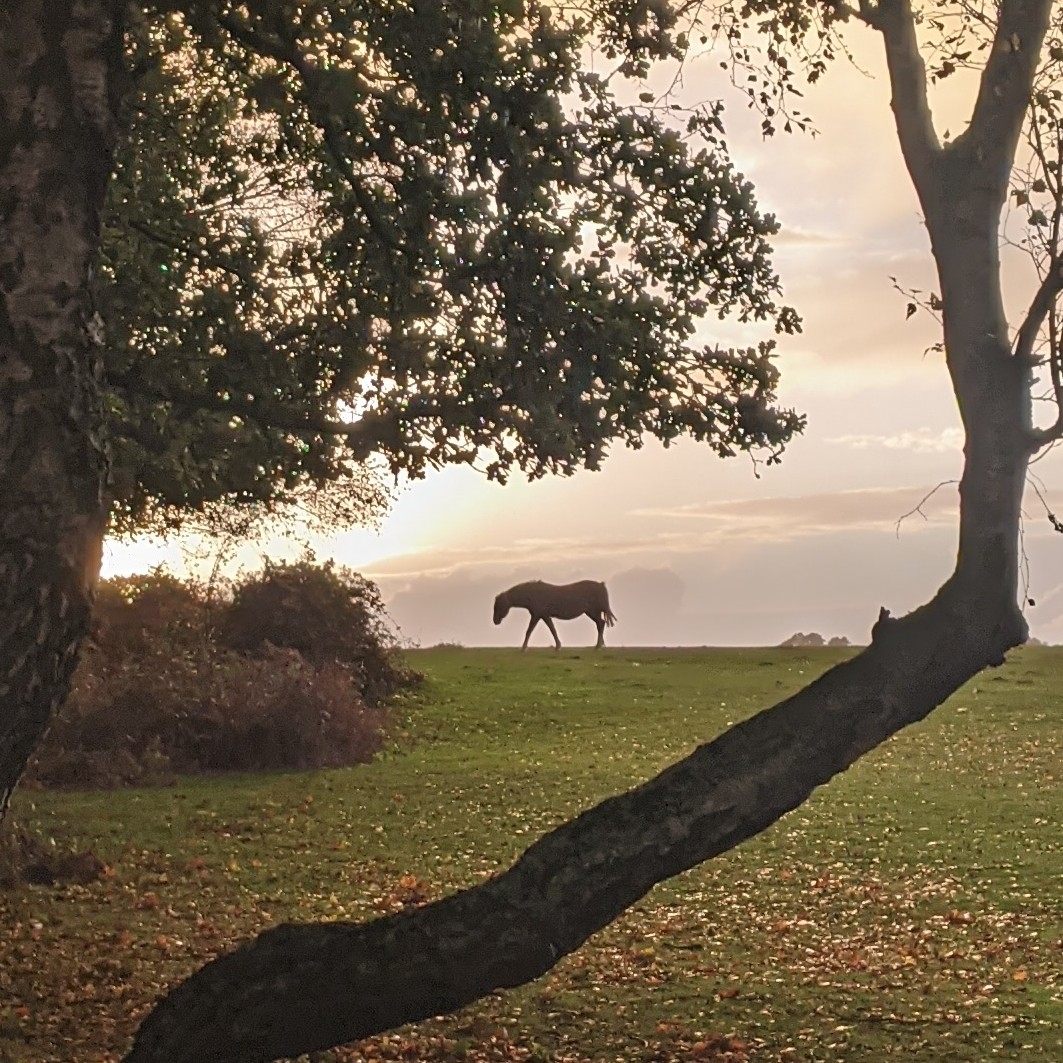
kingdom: Animalia
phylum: Chordata
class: Mammalia
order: Perissodactyla
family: Equidae
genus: Equus
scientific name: Equus caballus
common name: Horse
